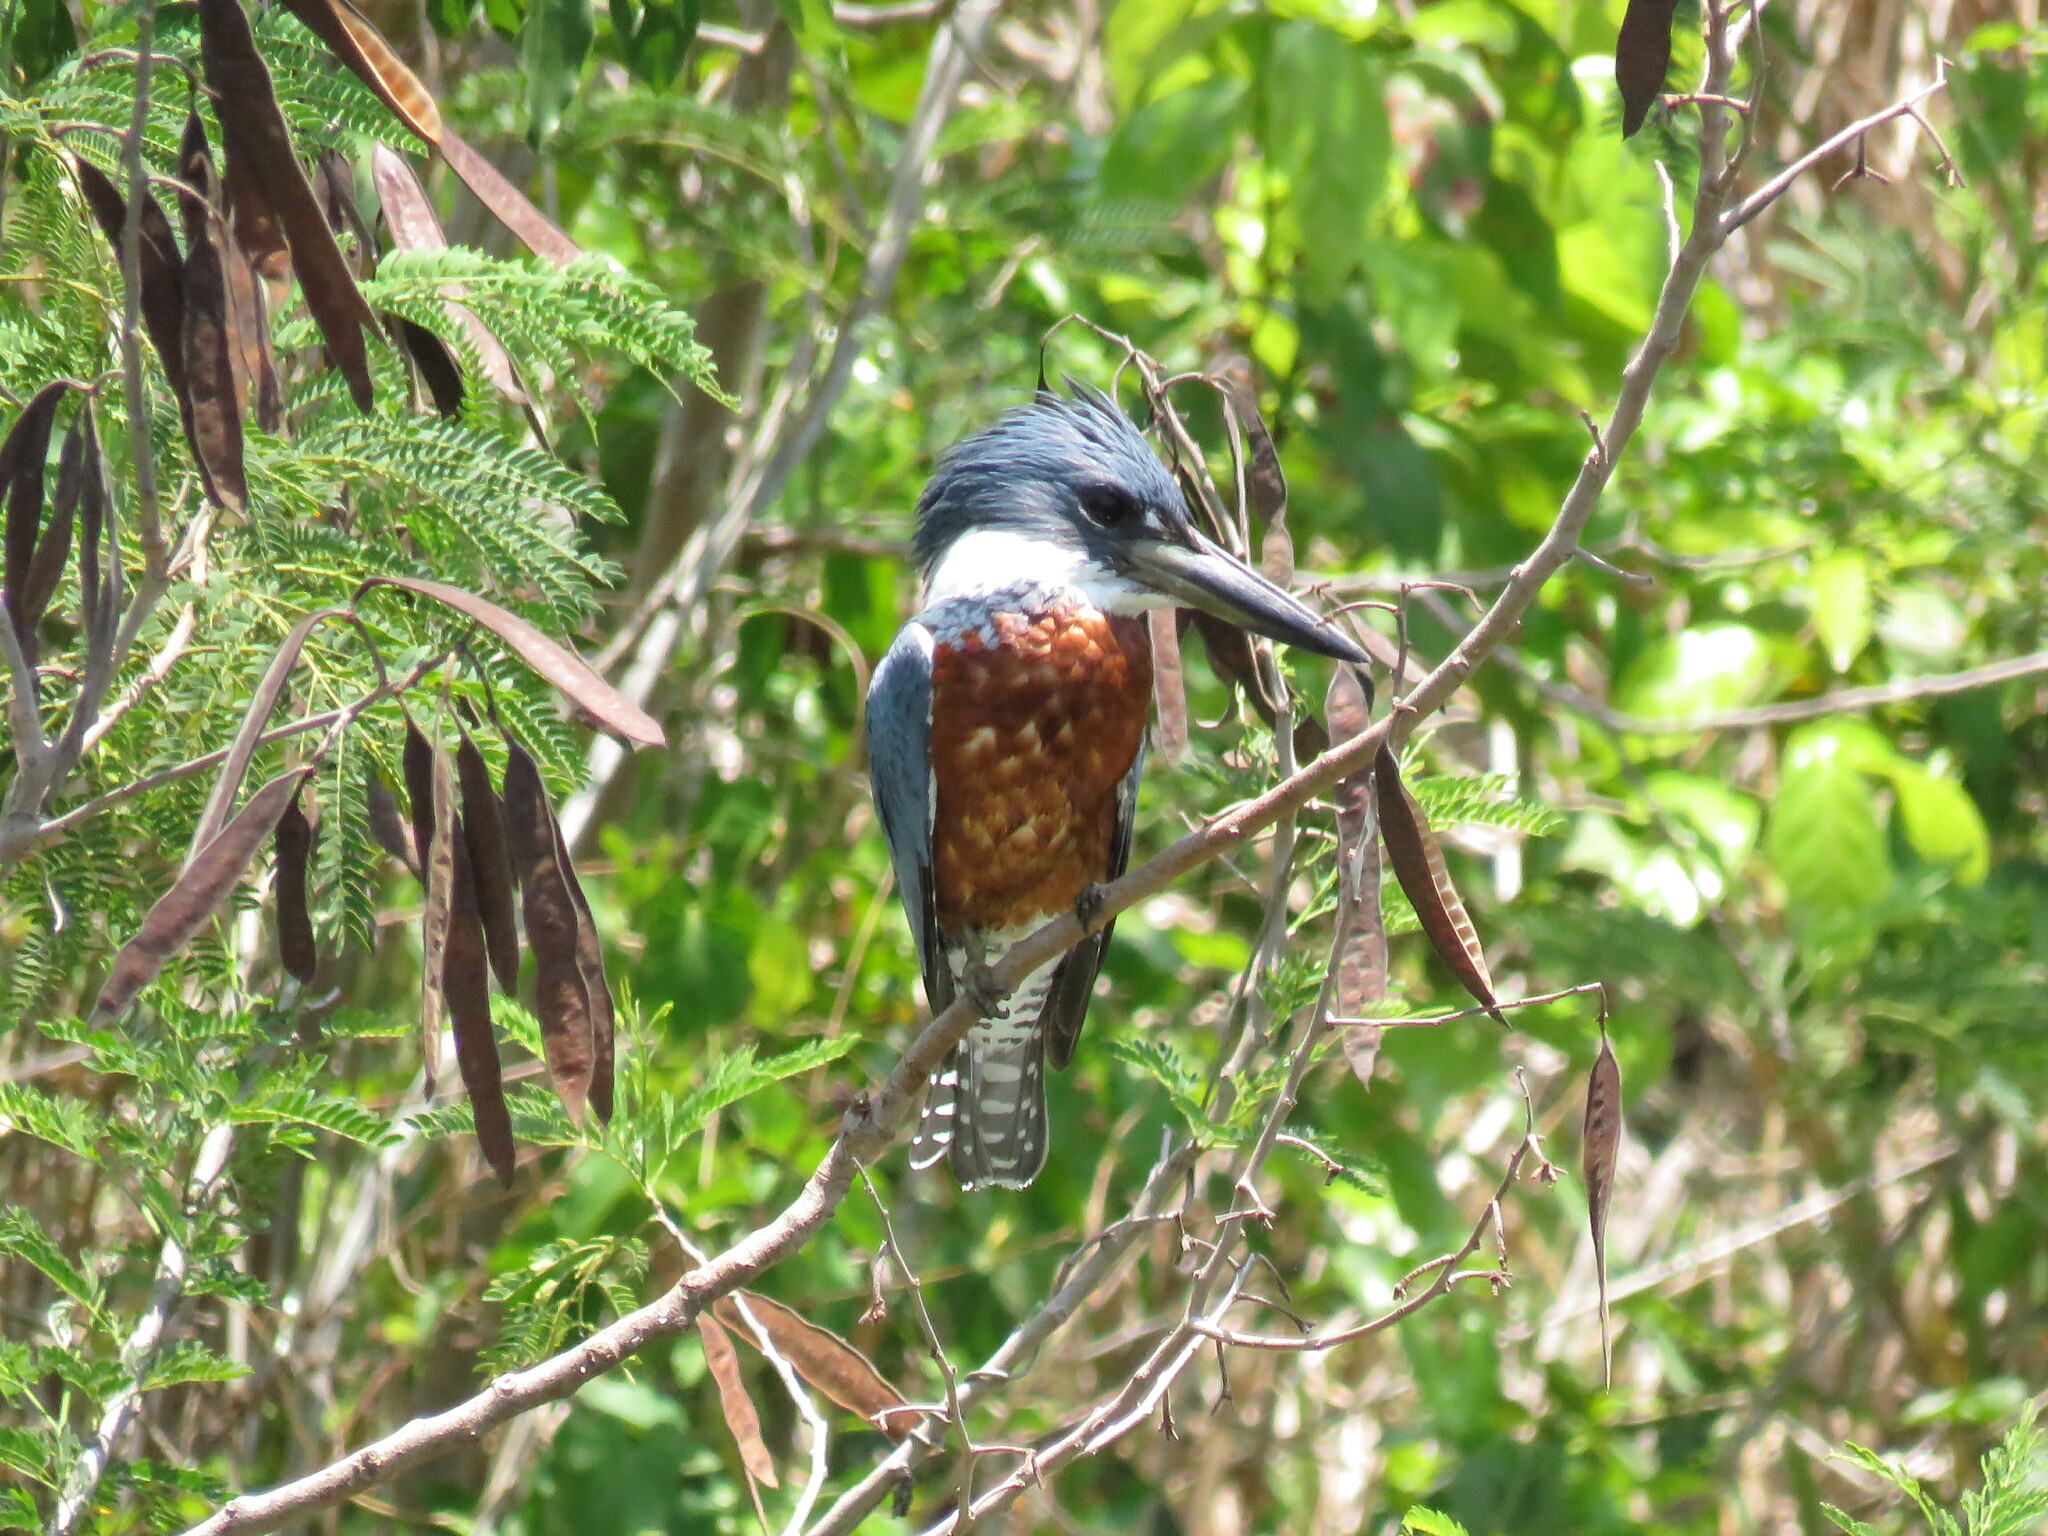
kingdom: Animalia
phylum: Chordata
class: Aves
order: Coraciiformes
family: Alcedinidae
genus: Megaceryle
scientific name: Megaceryle torquata
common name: Ringed kingfisher
